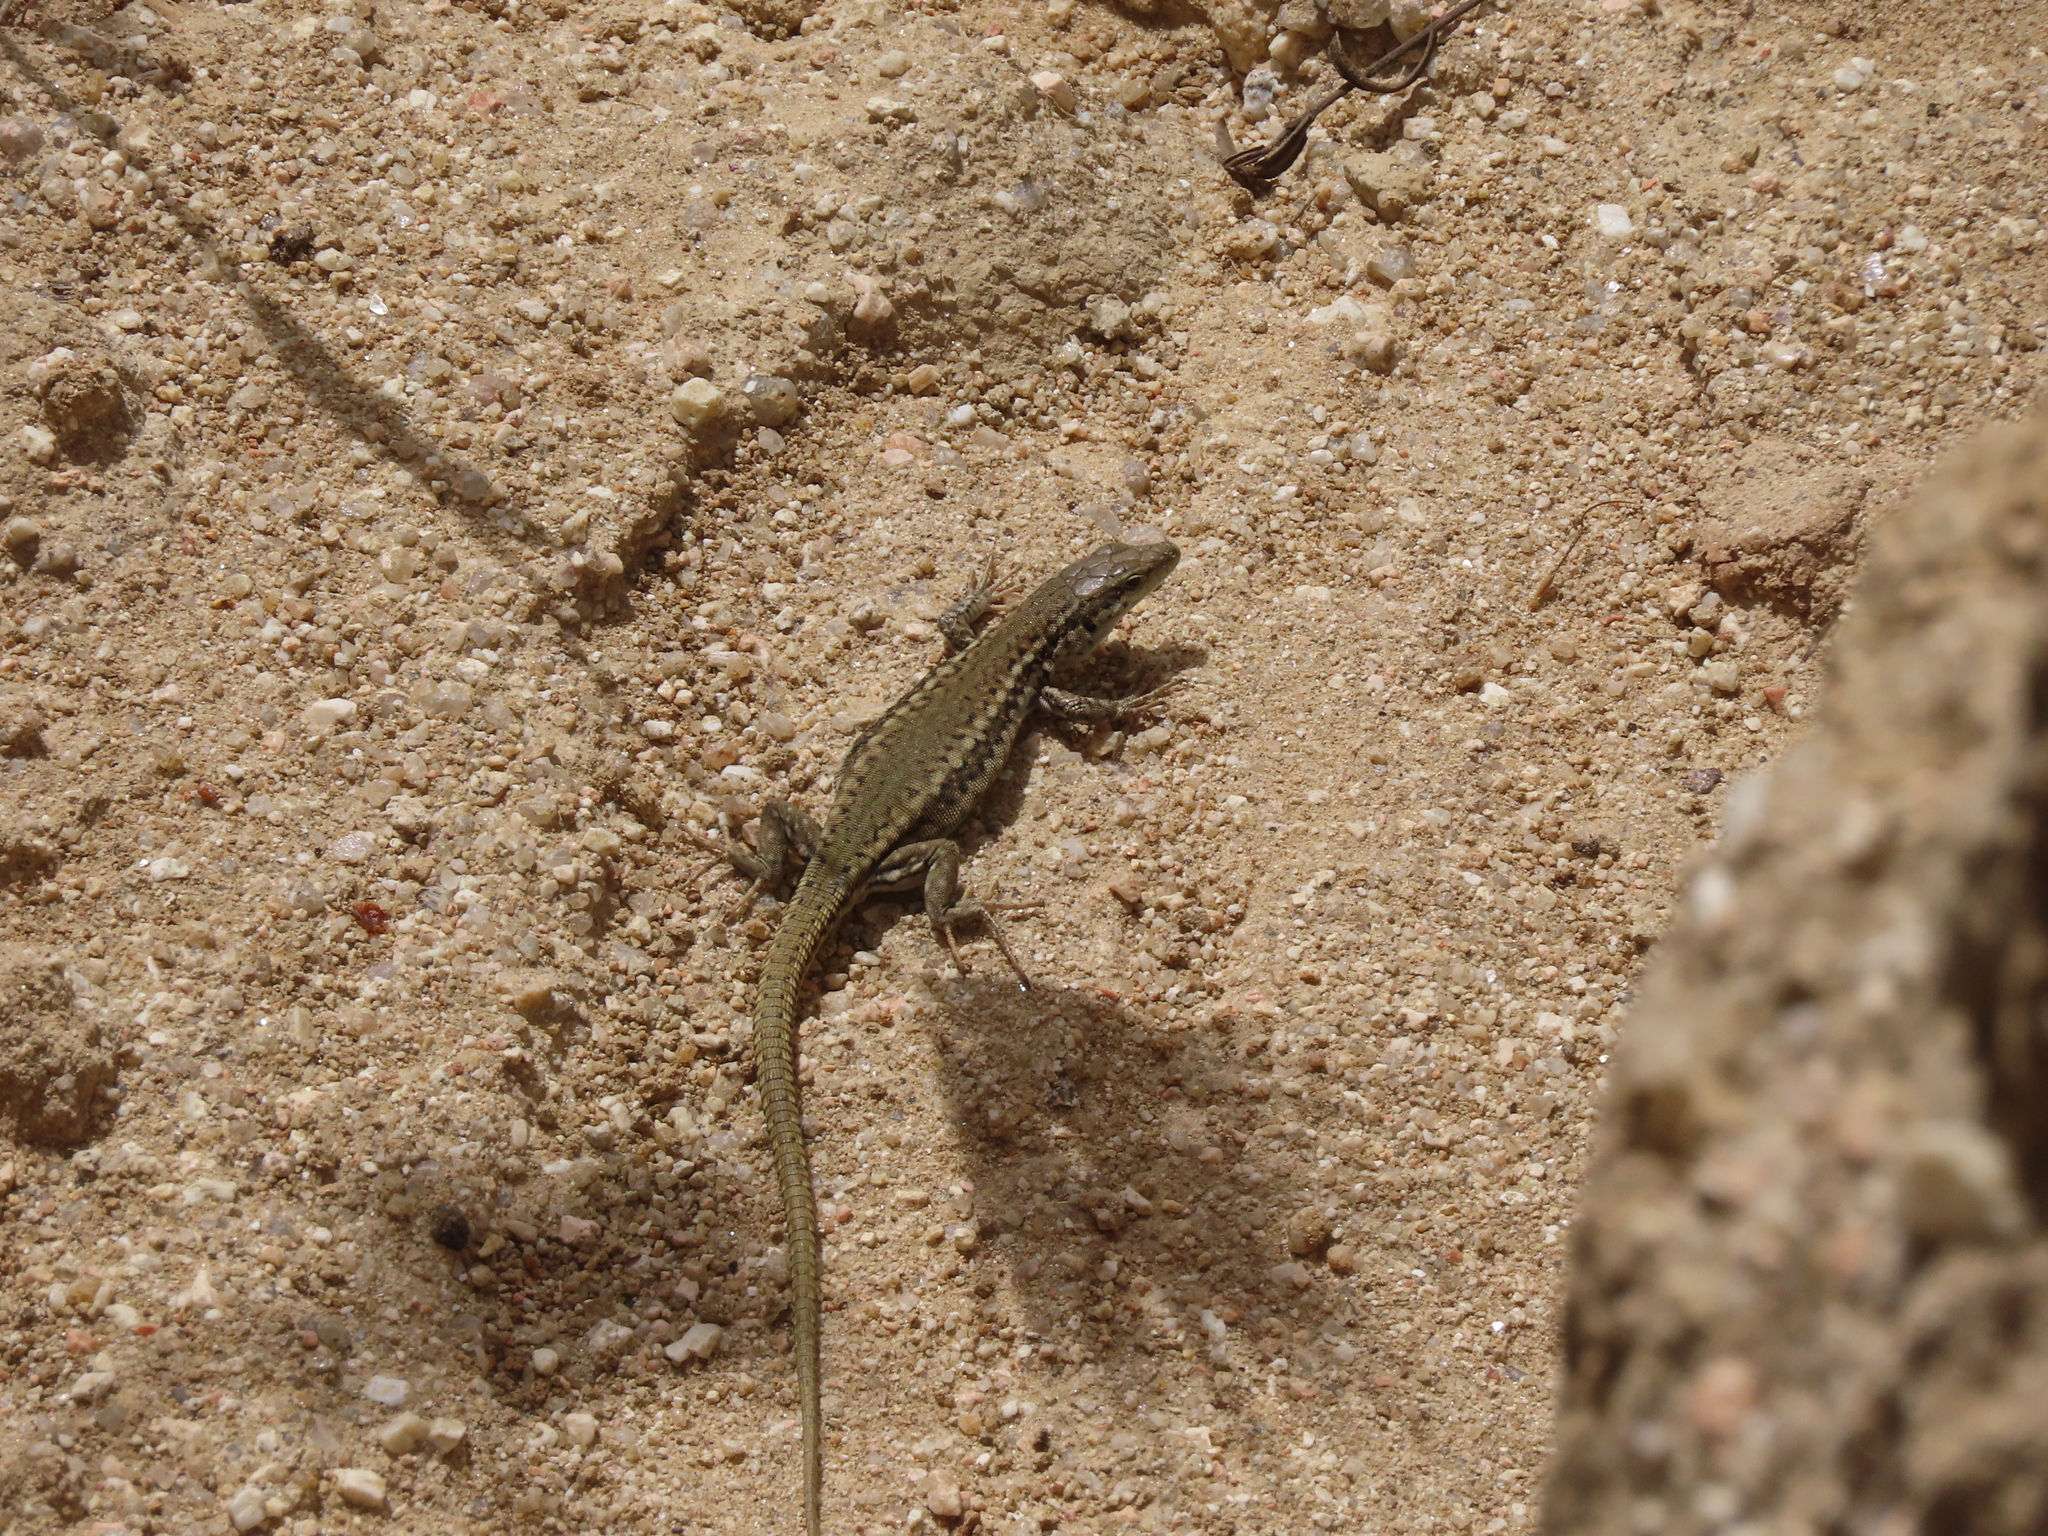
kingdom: Animalia
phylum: Chordata
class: Squamata
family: Lacertidae
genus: Podarcis
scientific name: Podarcis virescens
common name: Geniez’s wall lizard
